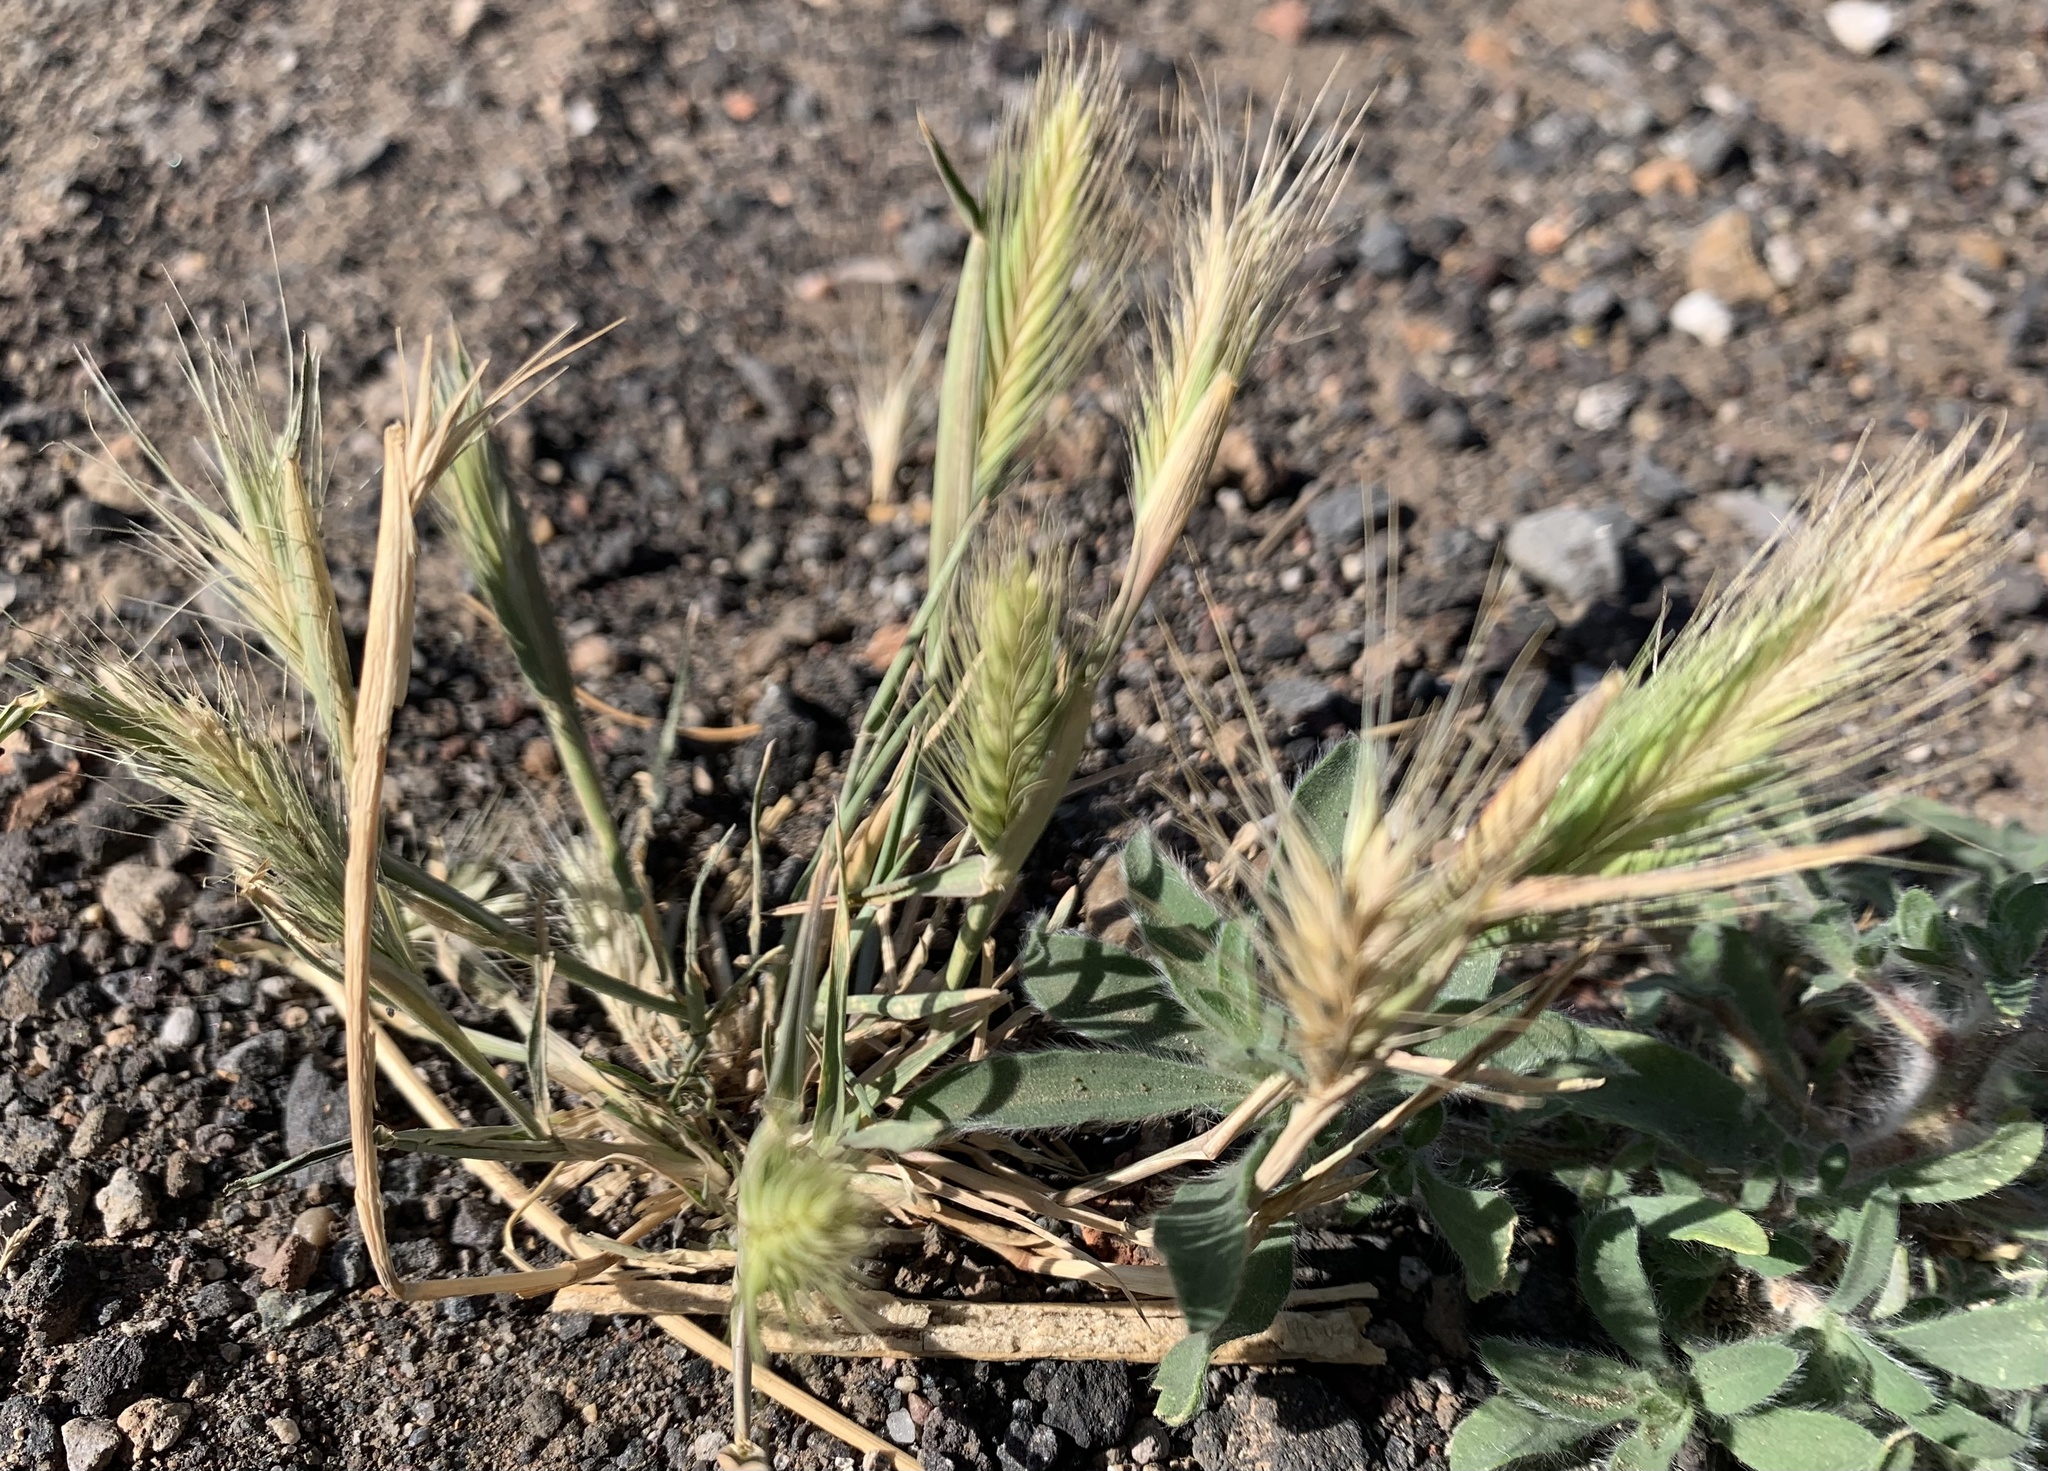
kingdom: Plantae
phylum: Tracheophyta
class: Liliopsida
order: Poales
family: Poaceae
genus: Hordeum
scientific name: Hordeum murinum
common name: Wall barley
